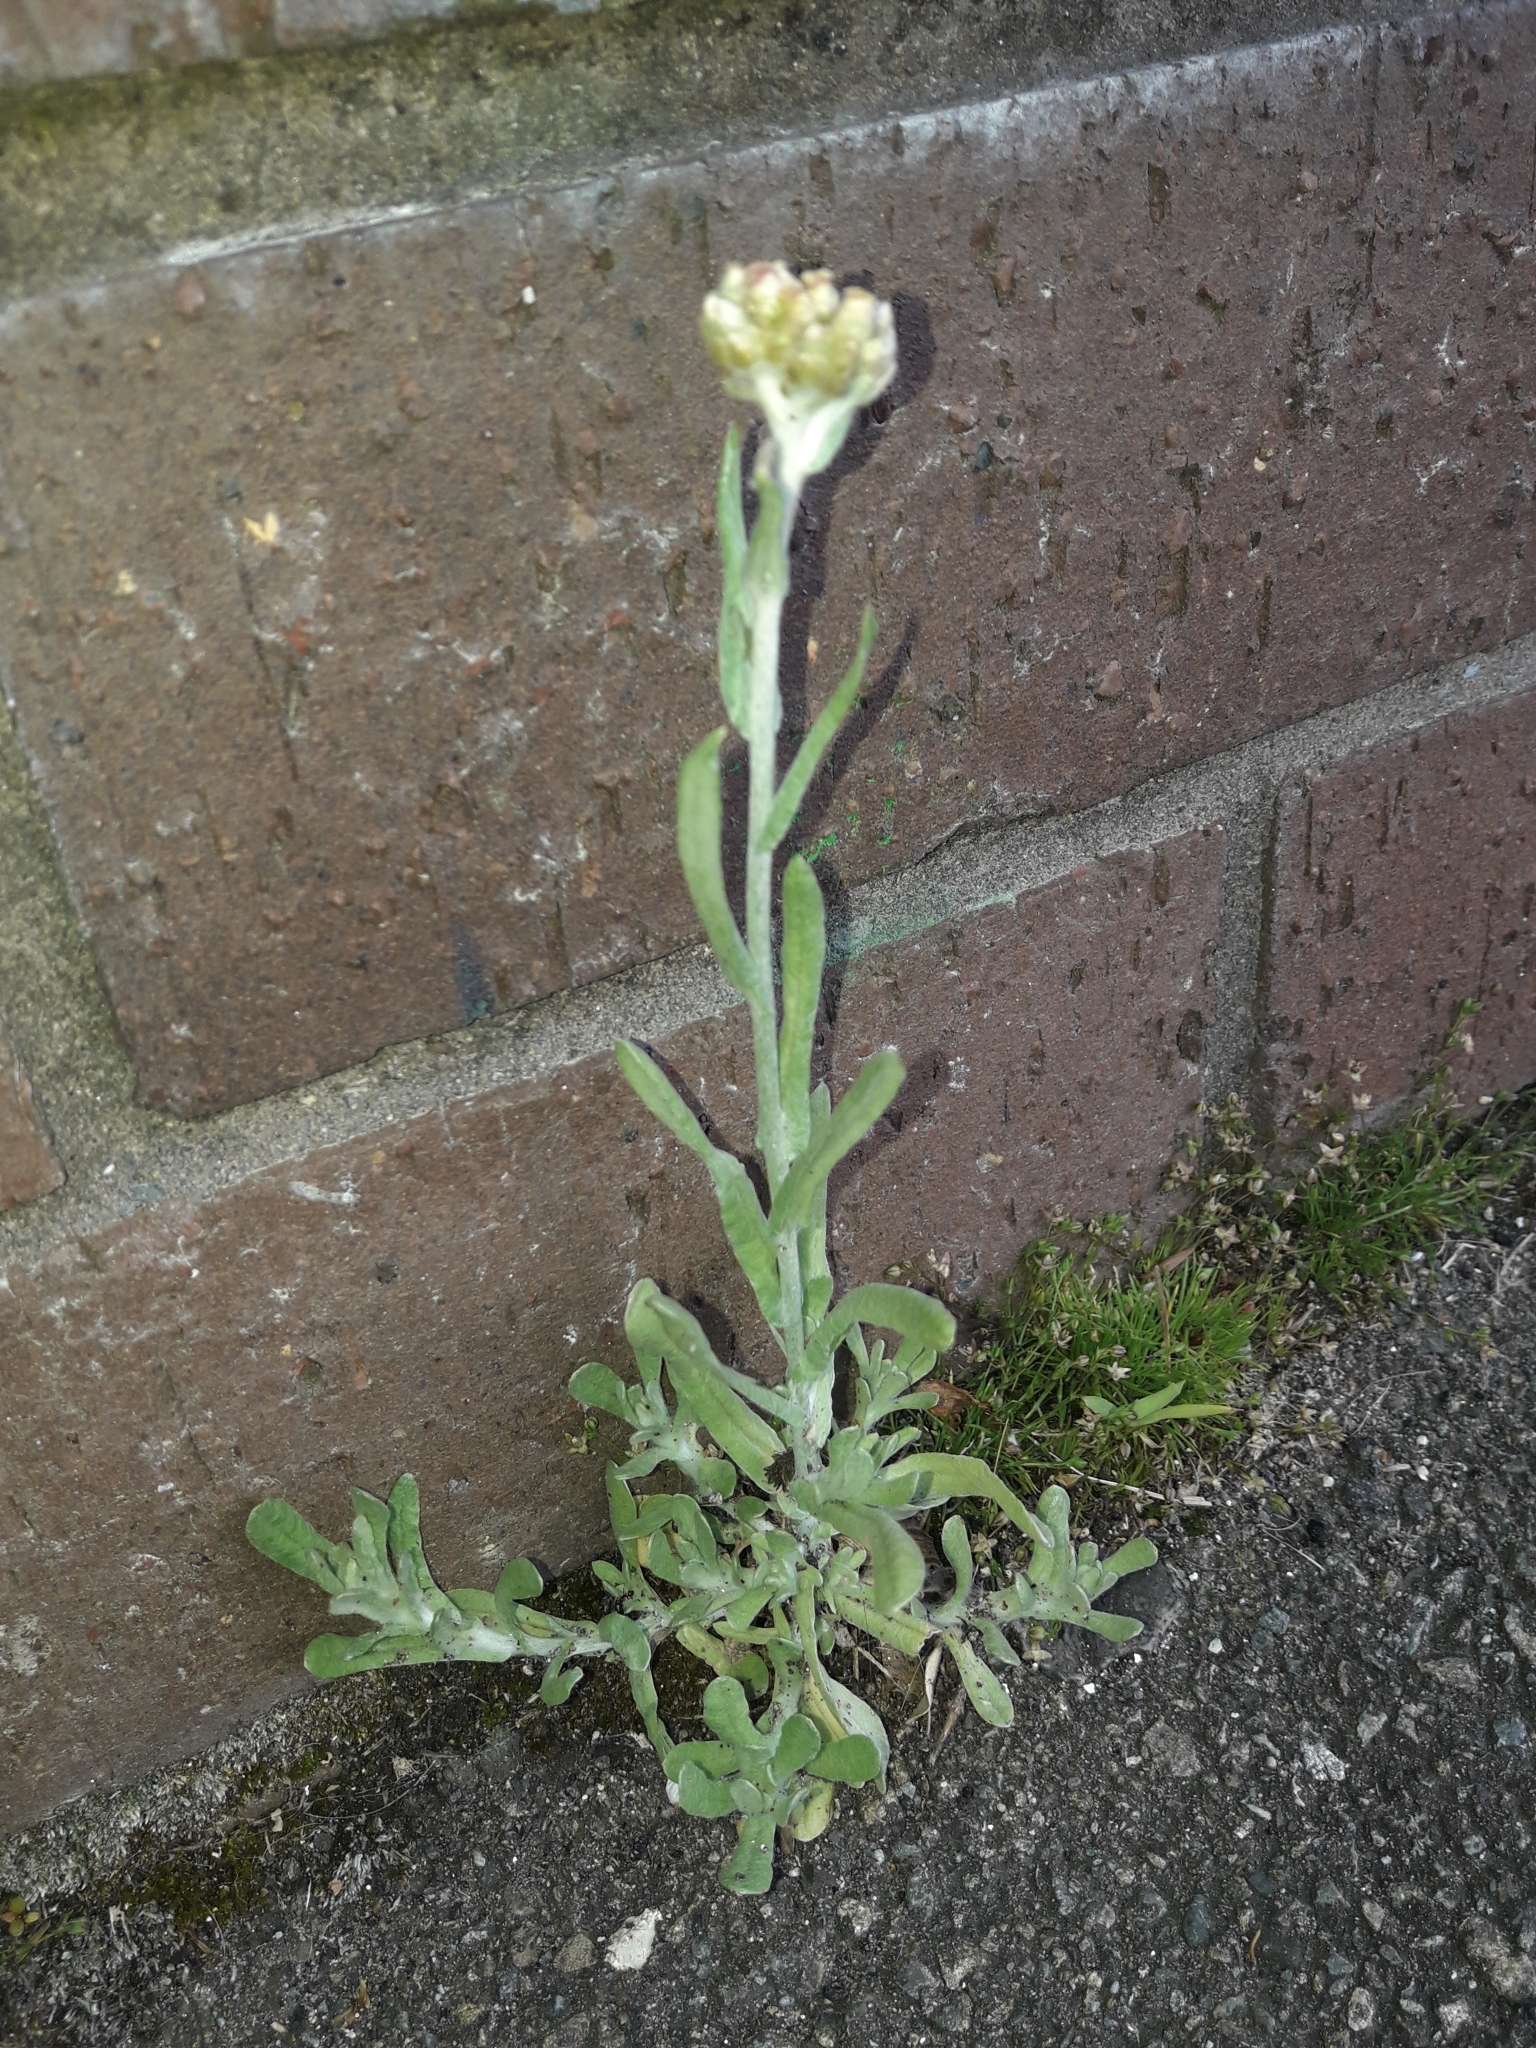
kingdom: Plantae
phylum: Tracheophyta
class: Magnoliopsida
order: Asterales
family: Asteraceae
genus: Helichrysum
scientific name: Helichrysum luteoalbum
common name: Daisy
